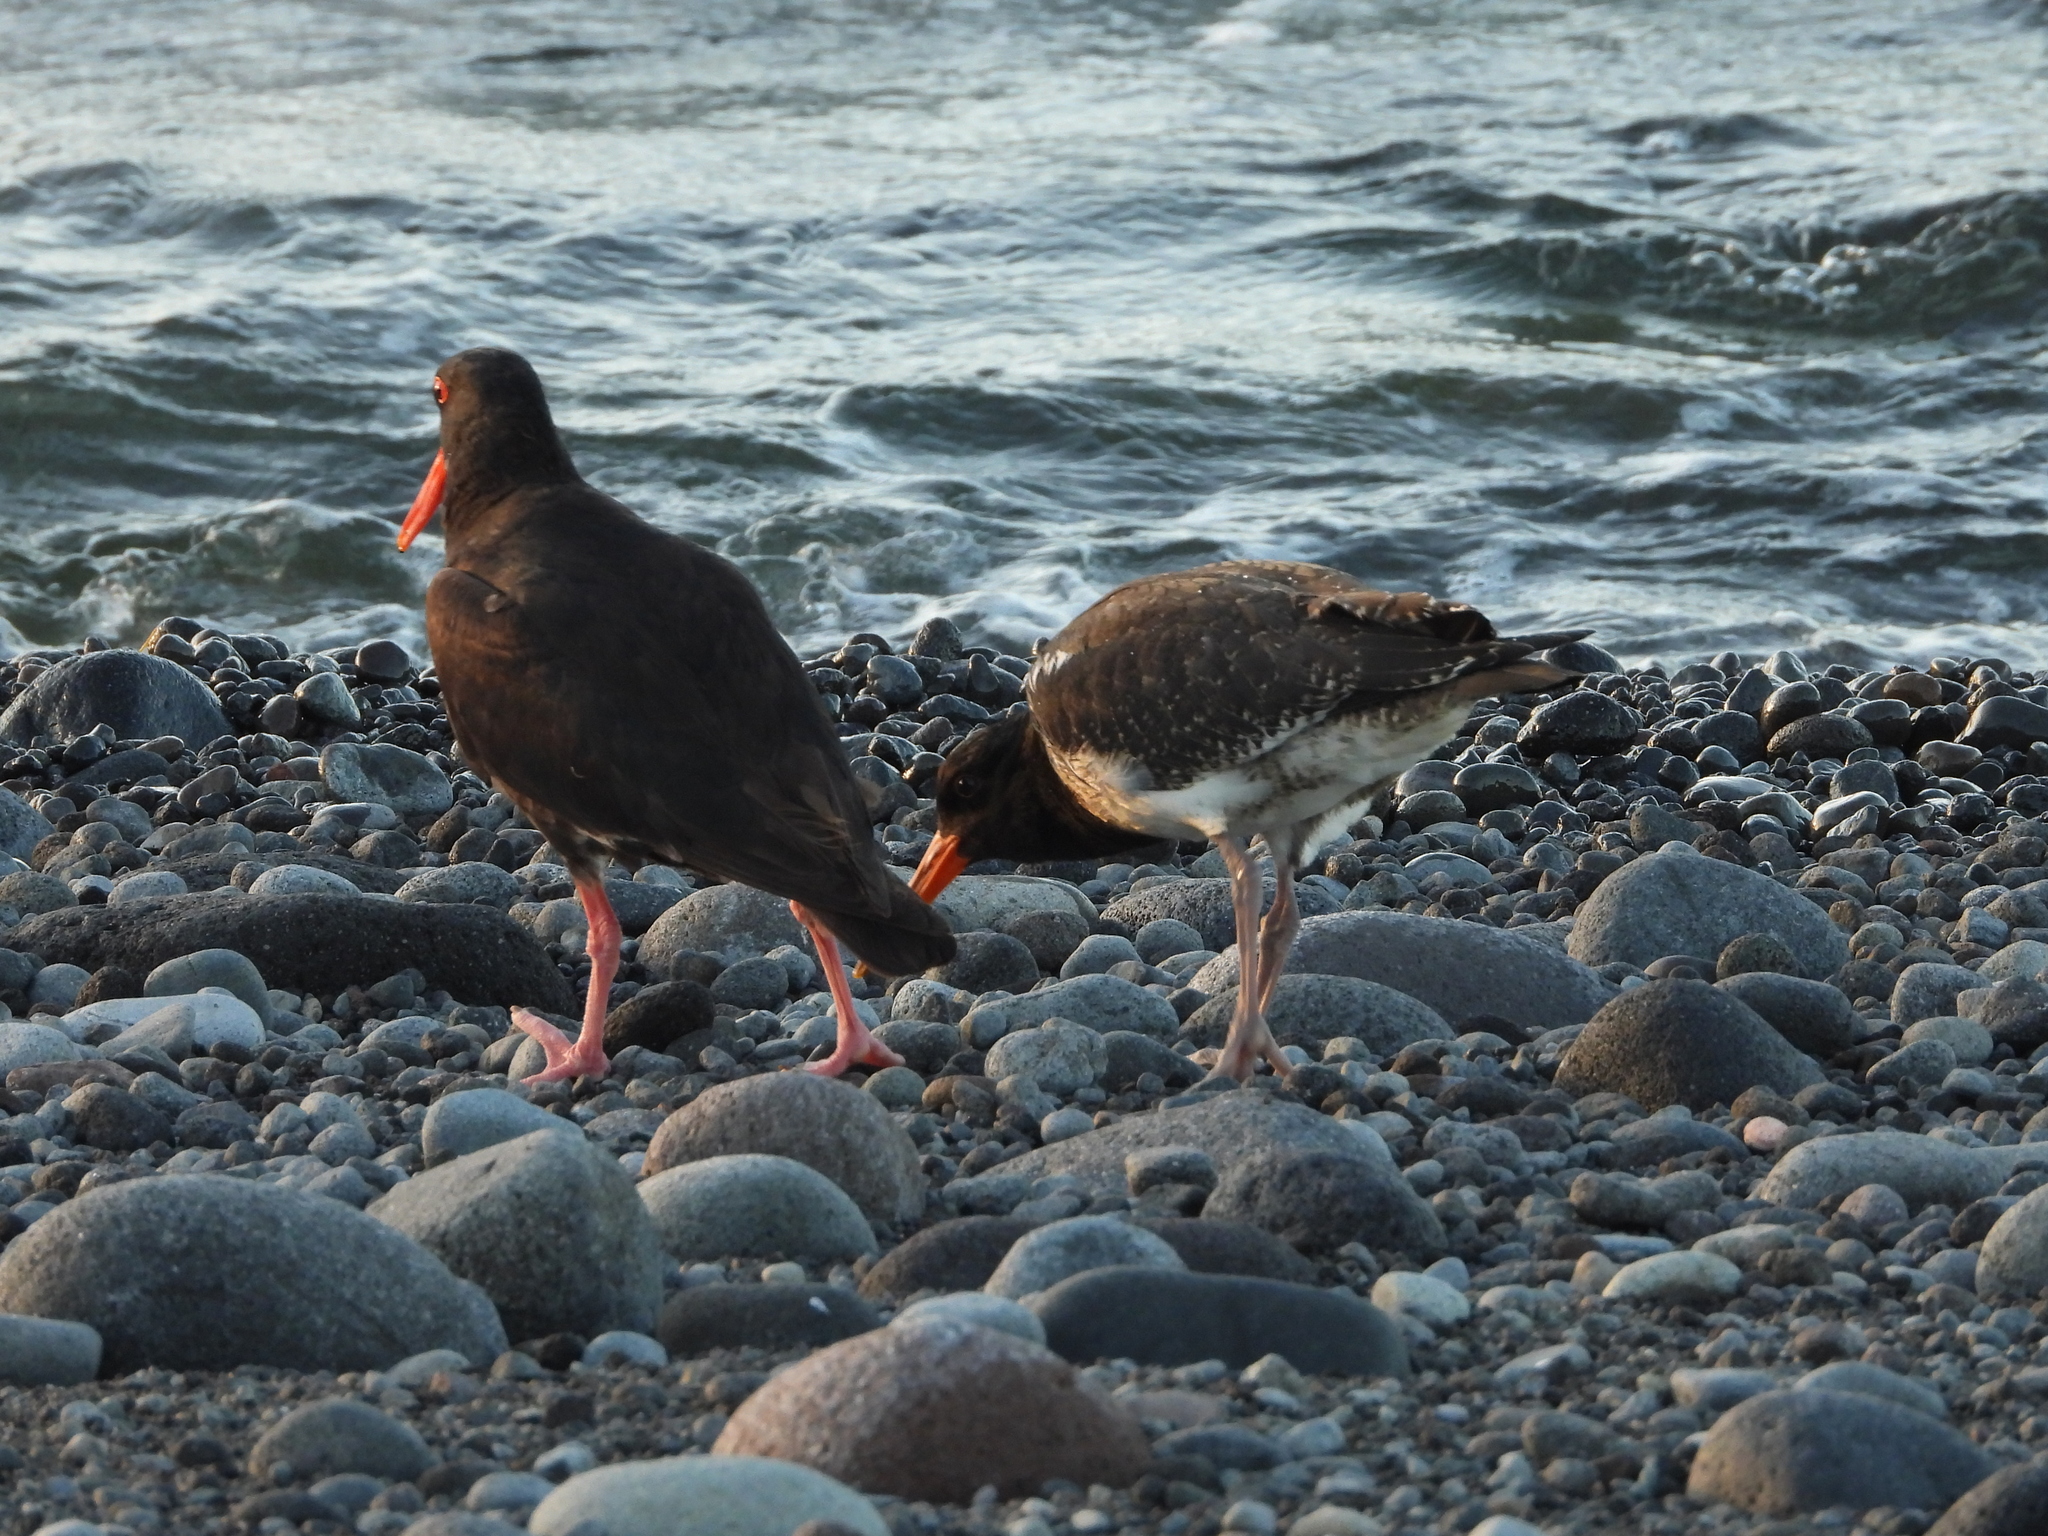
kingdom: Animalia
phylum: Chordata
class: Aves
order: Charadriiformes
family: Haematopodidae
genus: Haematopus
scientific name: Haematopus unicolor
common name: Variable oystercatcher
